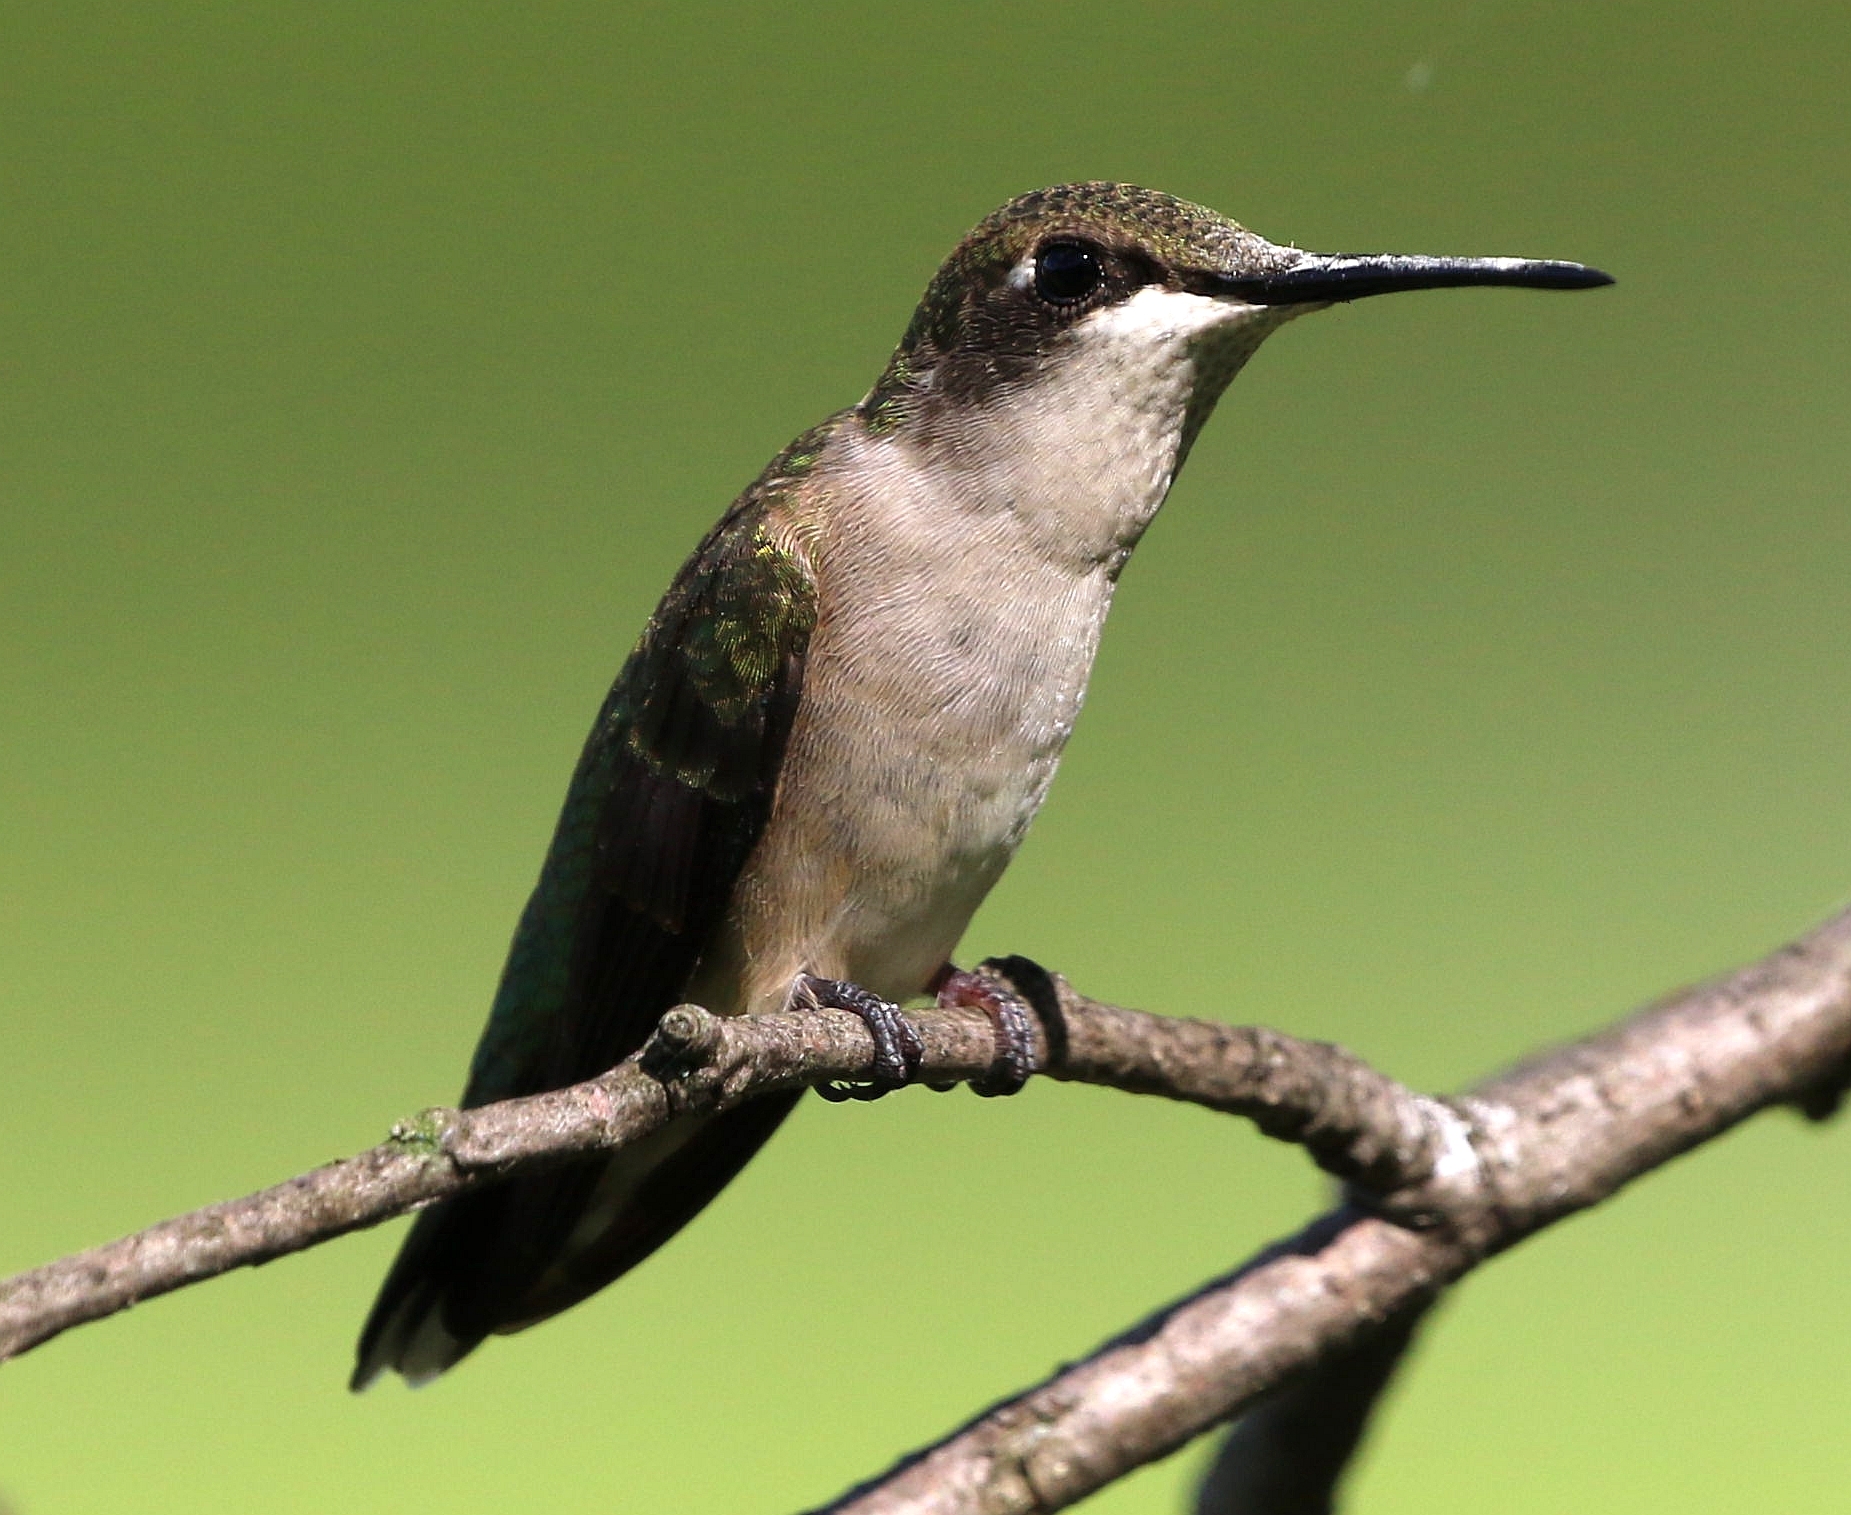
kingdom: Animalia
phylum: Chordata
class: Aves
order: Apodiformes
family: Trochilidae
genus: Archilochus
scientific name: Archilochus colubris
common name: Ruby-throated hummingbird
